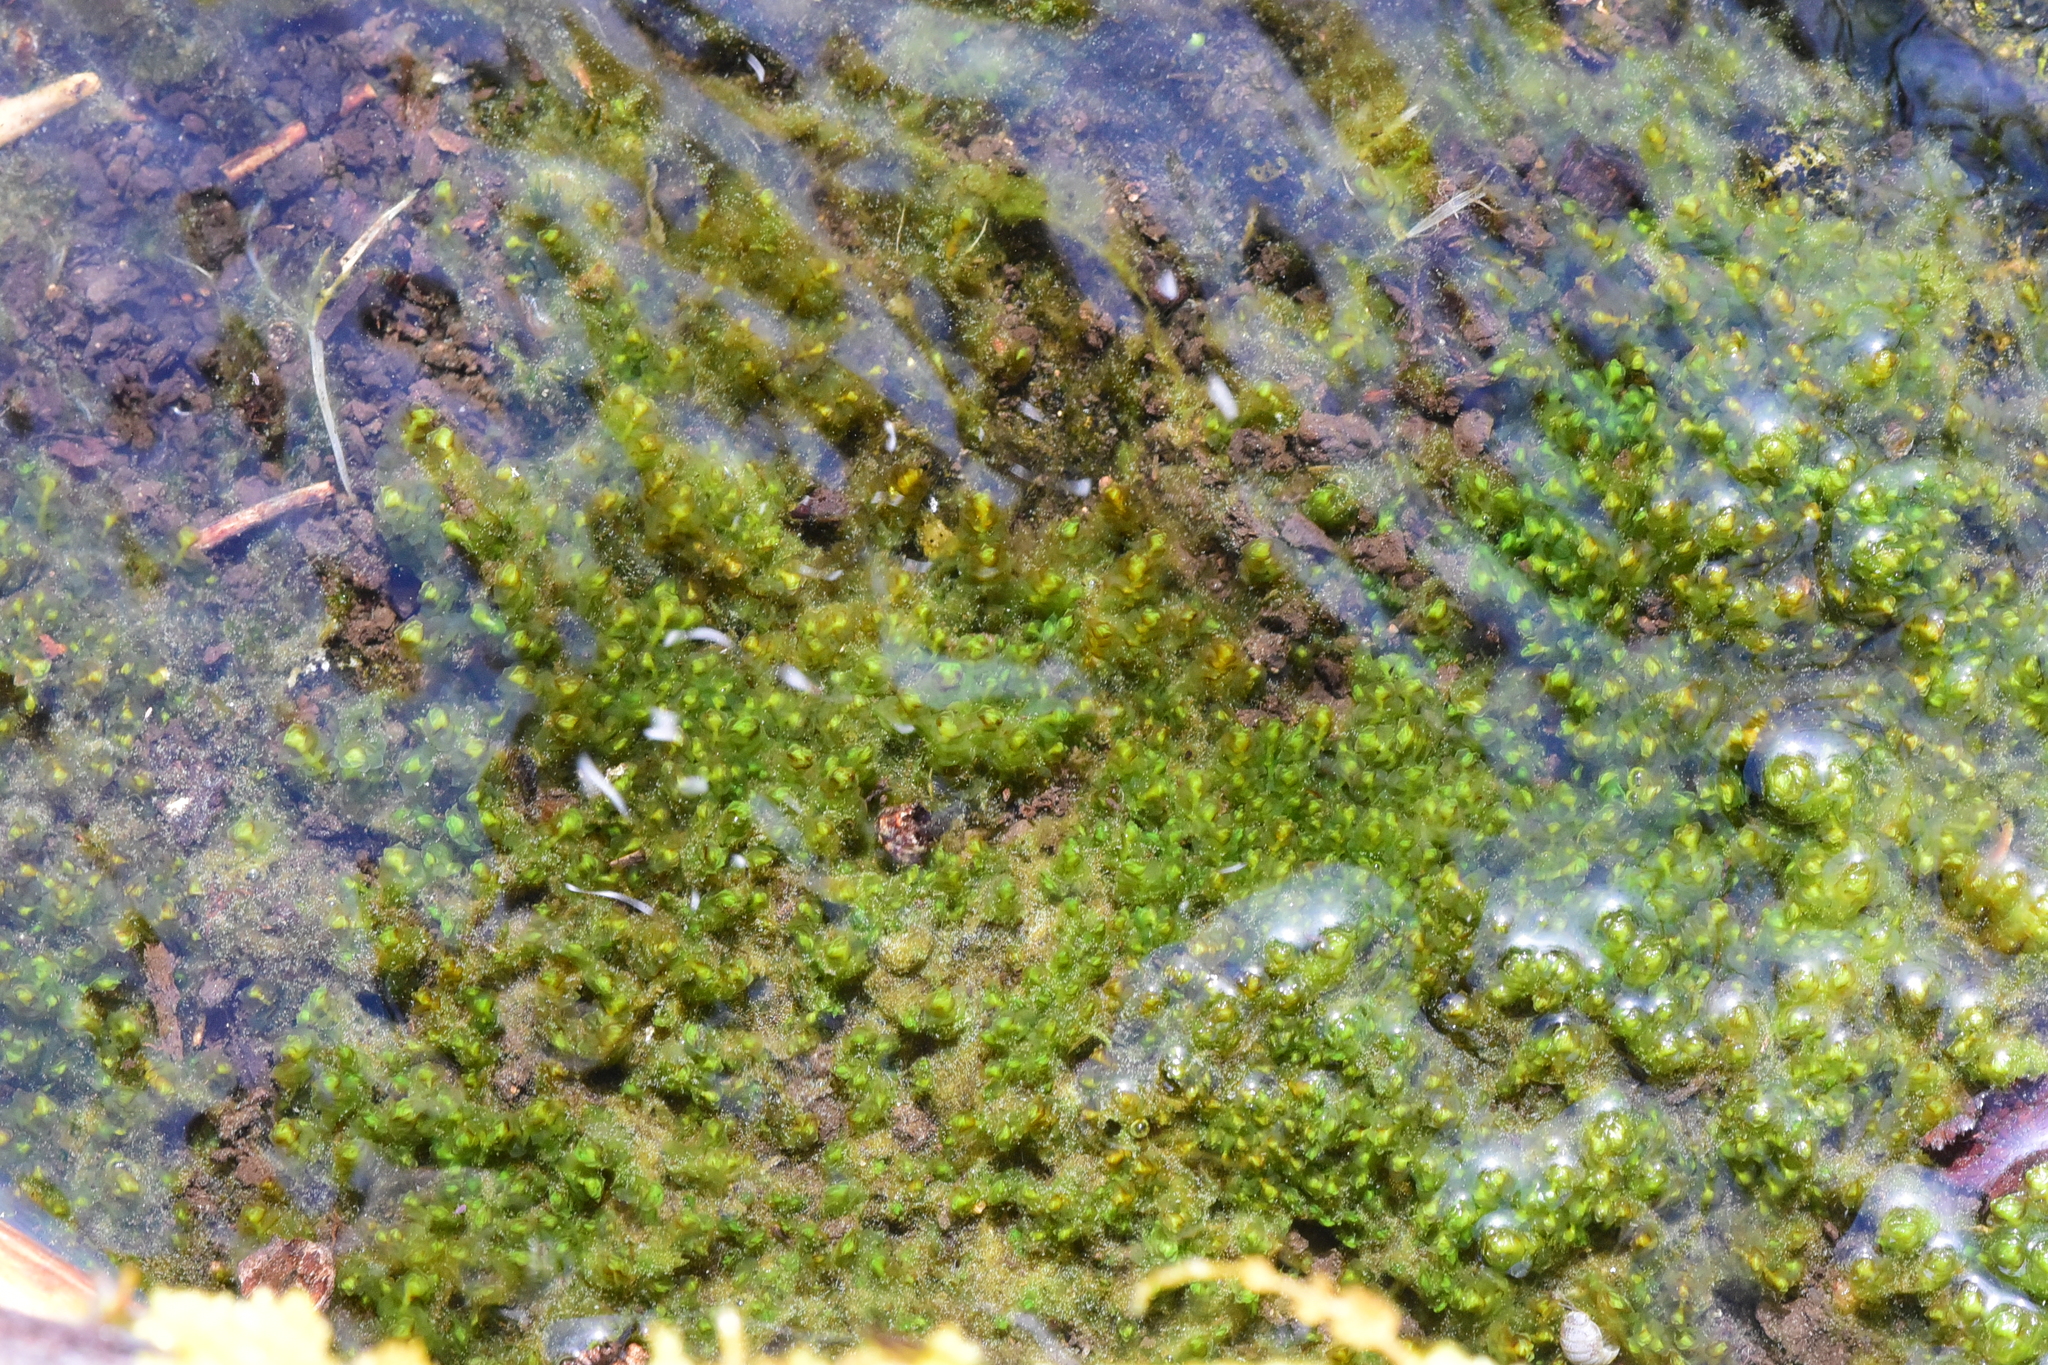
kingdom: Plantae
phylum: Marchantiophyta
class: Jungermanniopsida
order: Jungermanniales
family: Scapaniaceae
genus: Scapania
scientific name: Scapania undulata
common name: Water earwort
